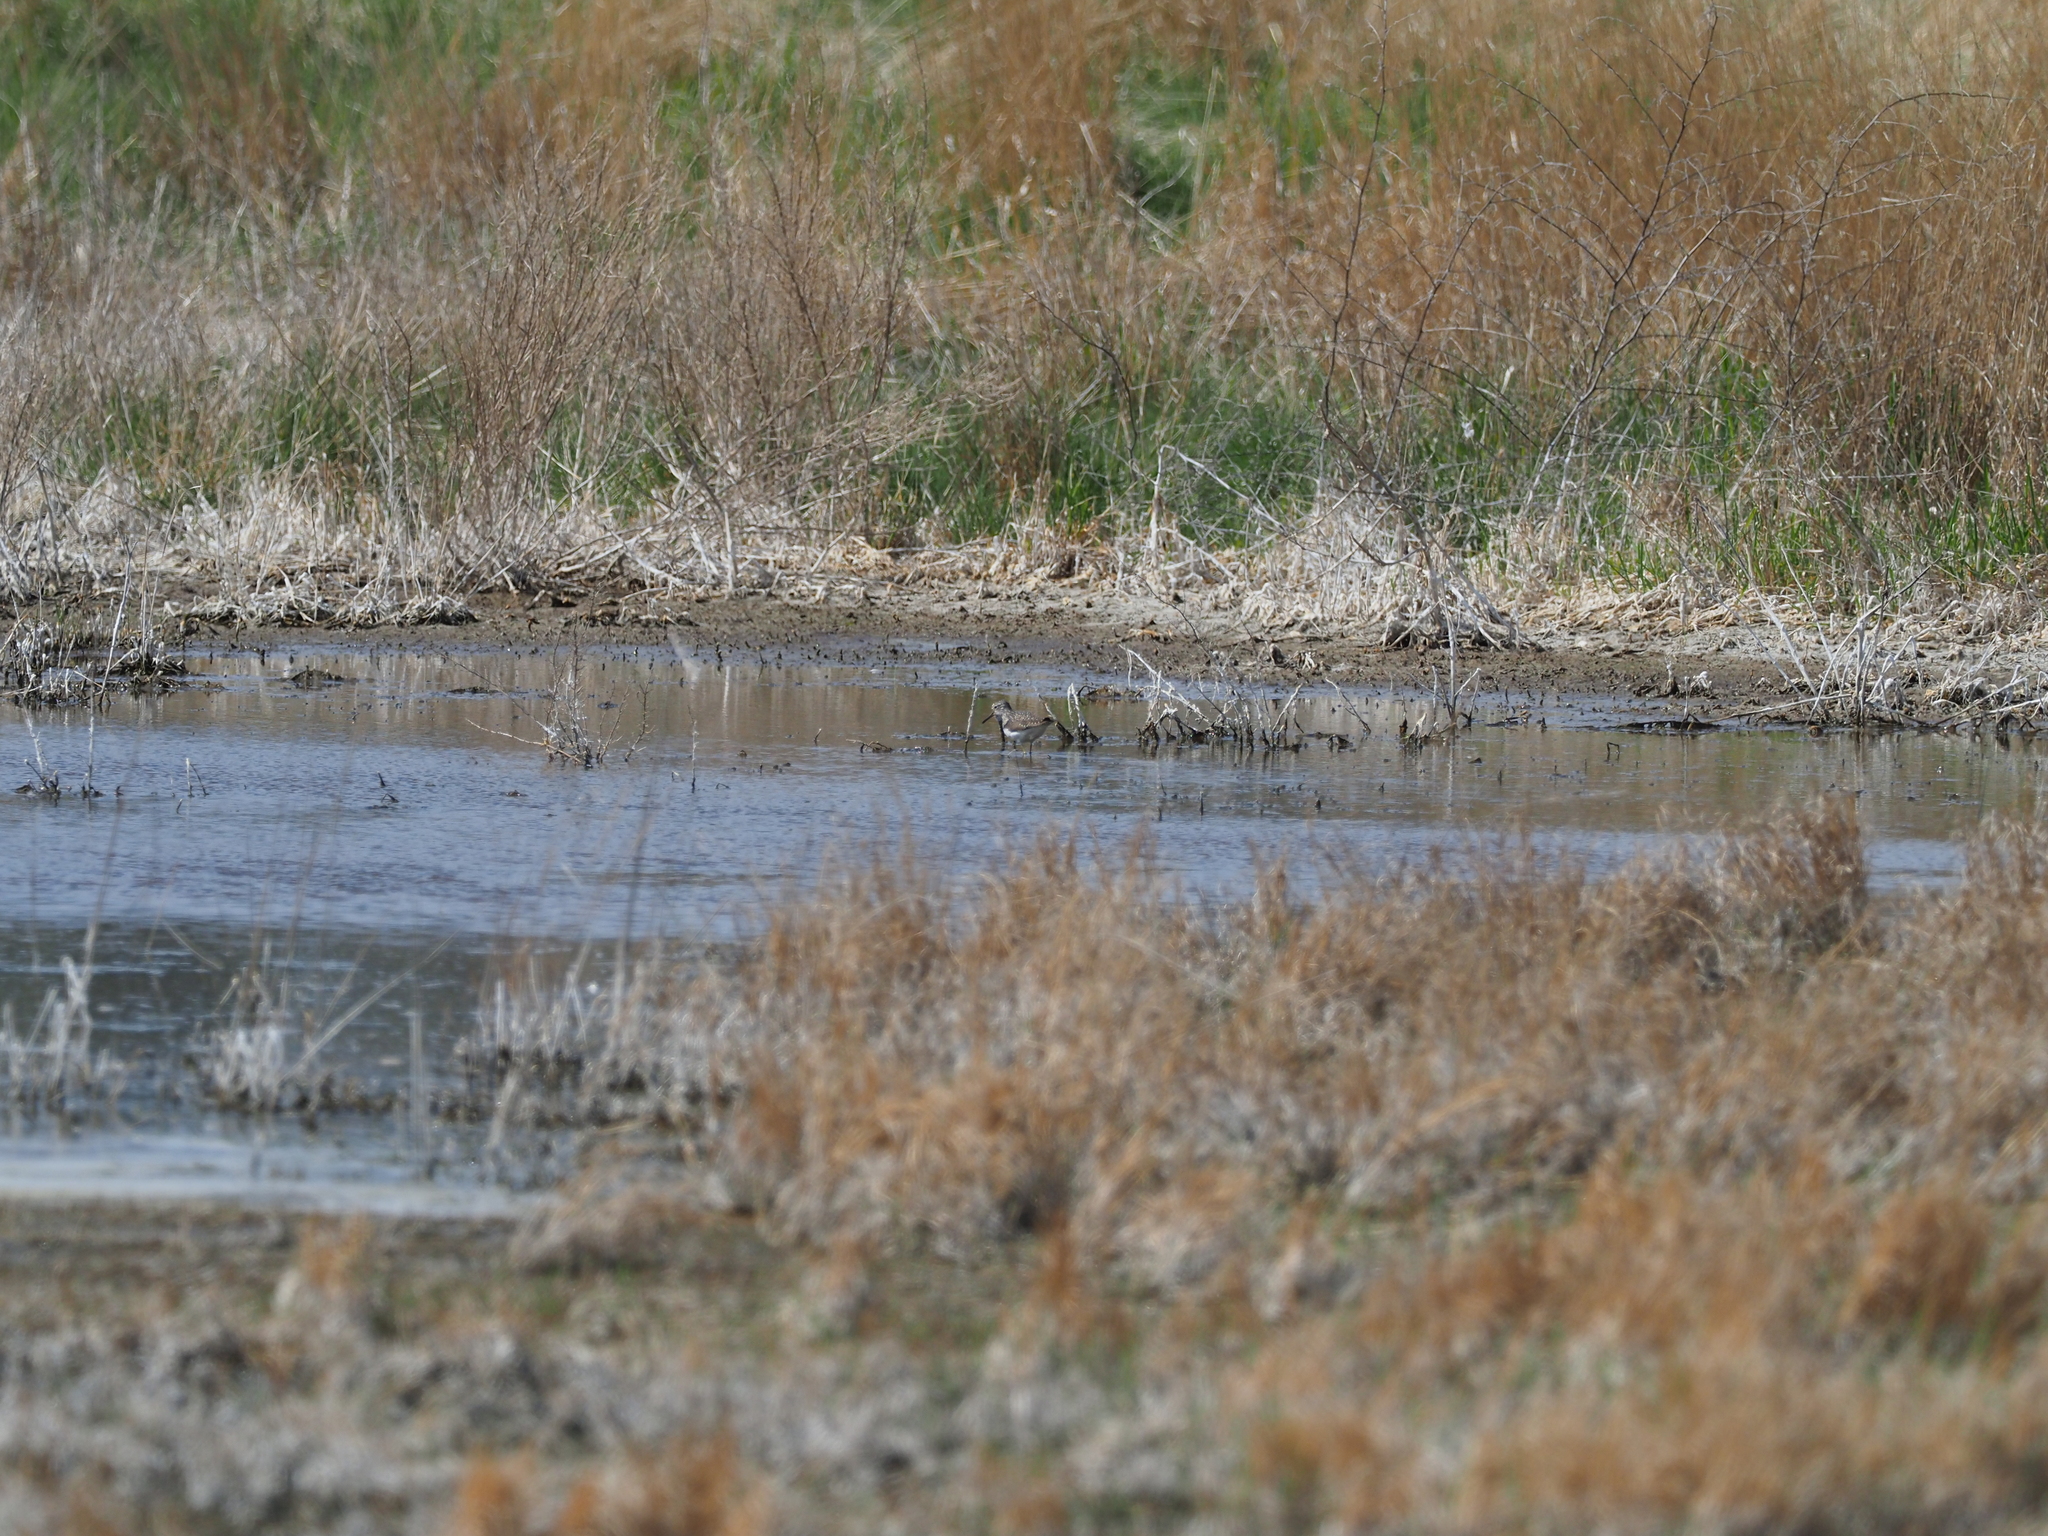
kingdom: Animalia
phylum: Chordata
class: Aves
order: Charadriiformes
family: Scolopacidae
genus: Tringa
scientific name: Tringa solitaria
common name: Solitary sandpiper
